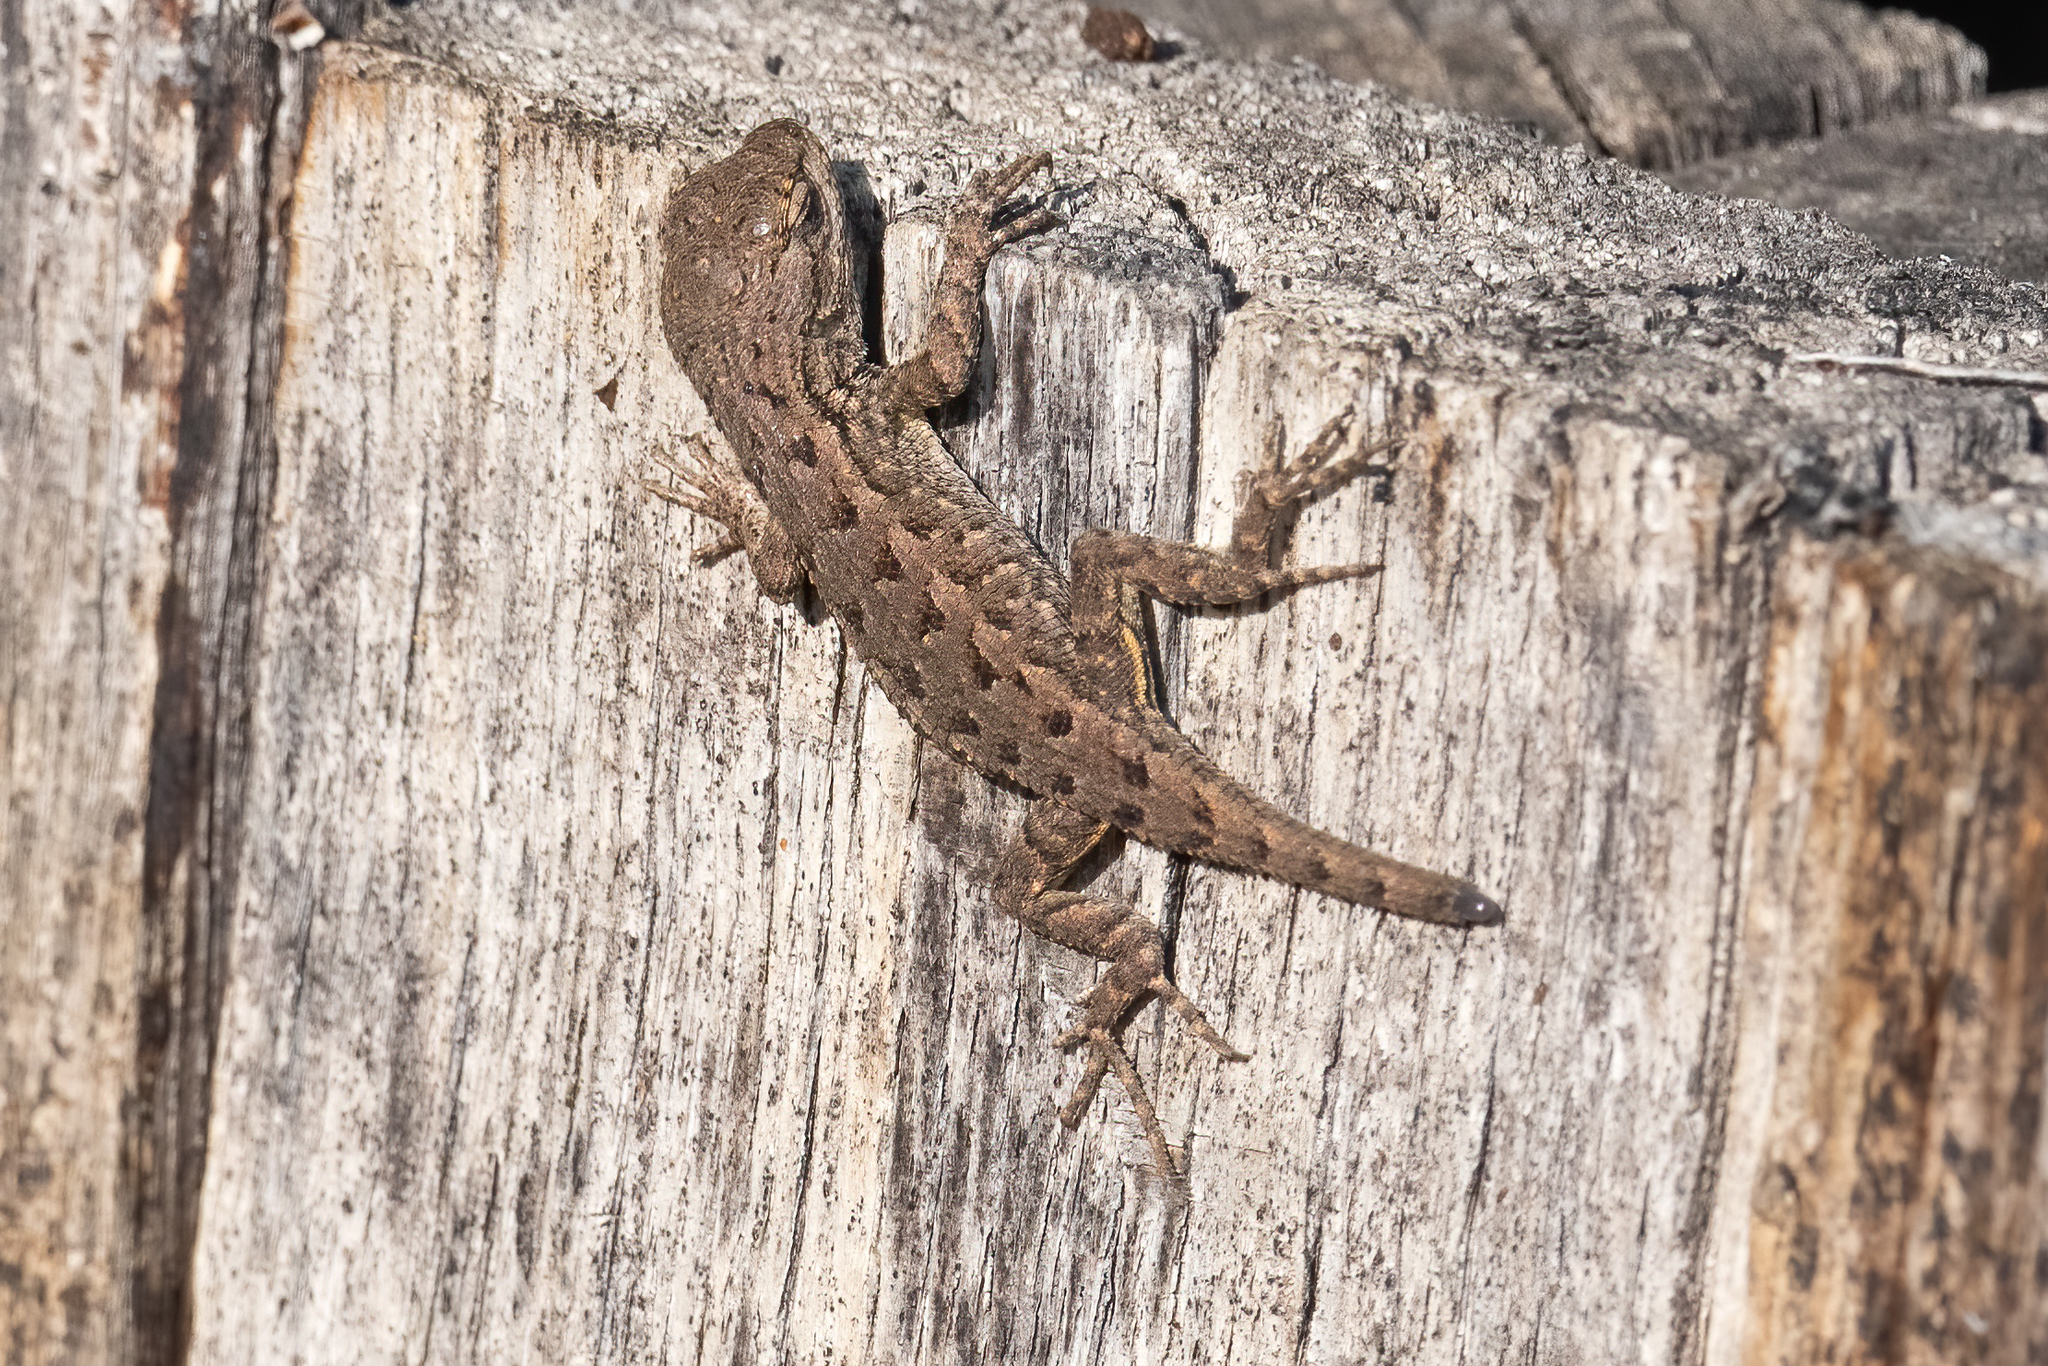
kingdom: Animalia
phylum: Chordata
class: Squamata
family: Phrynosomatidae
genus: Sceloporus
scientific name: Sceloporus occidentalis
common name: Western fence lizard
